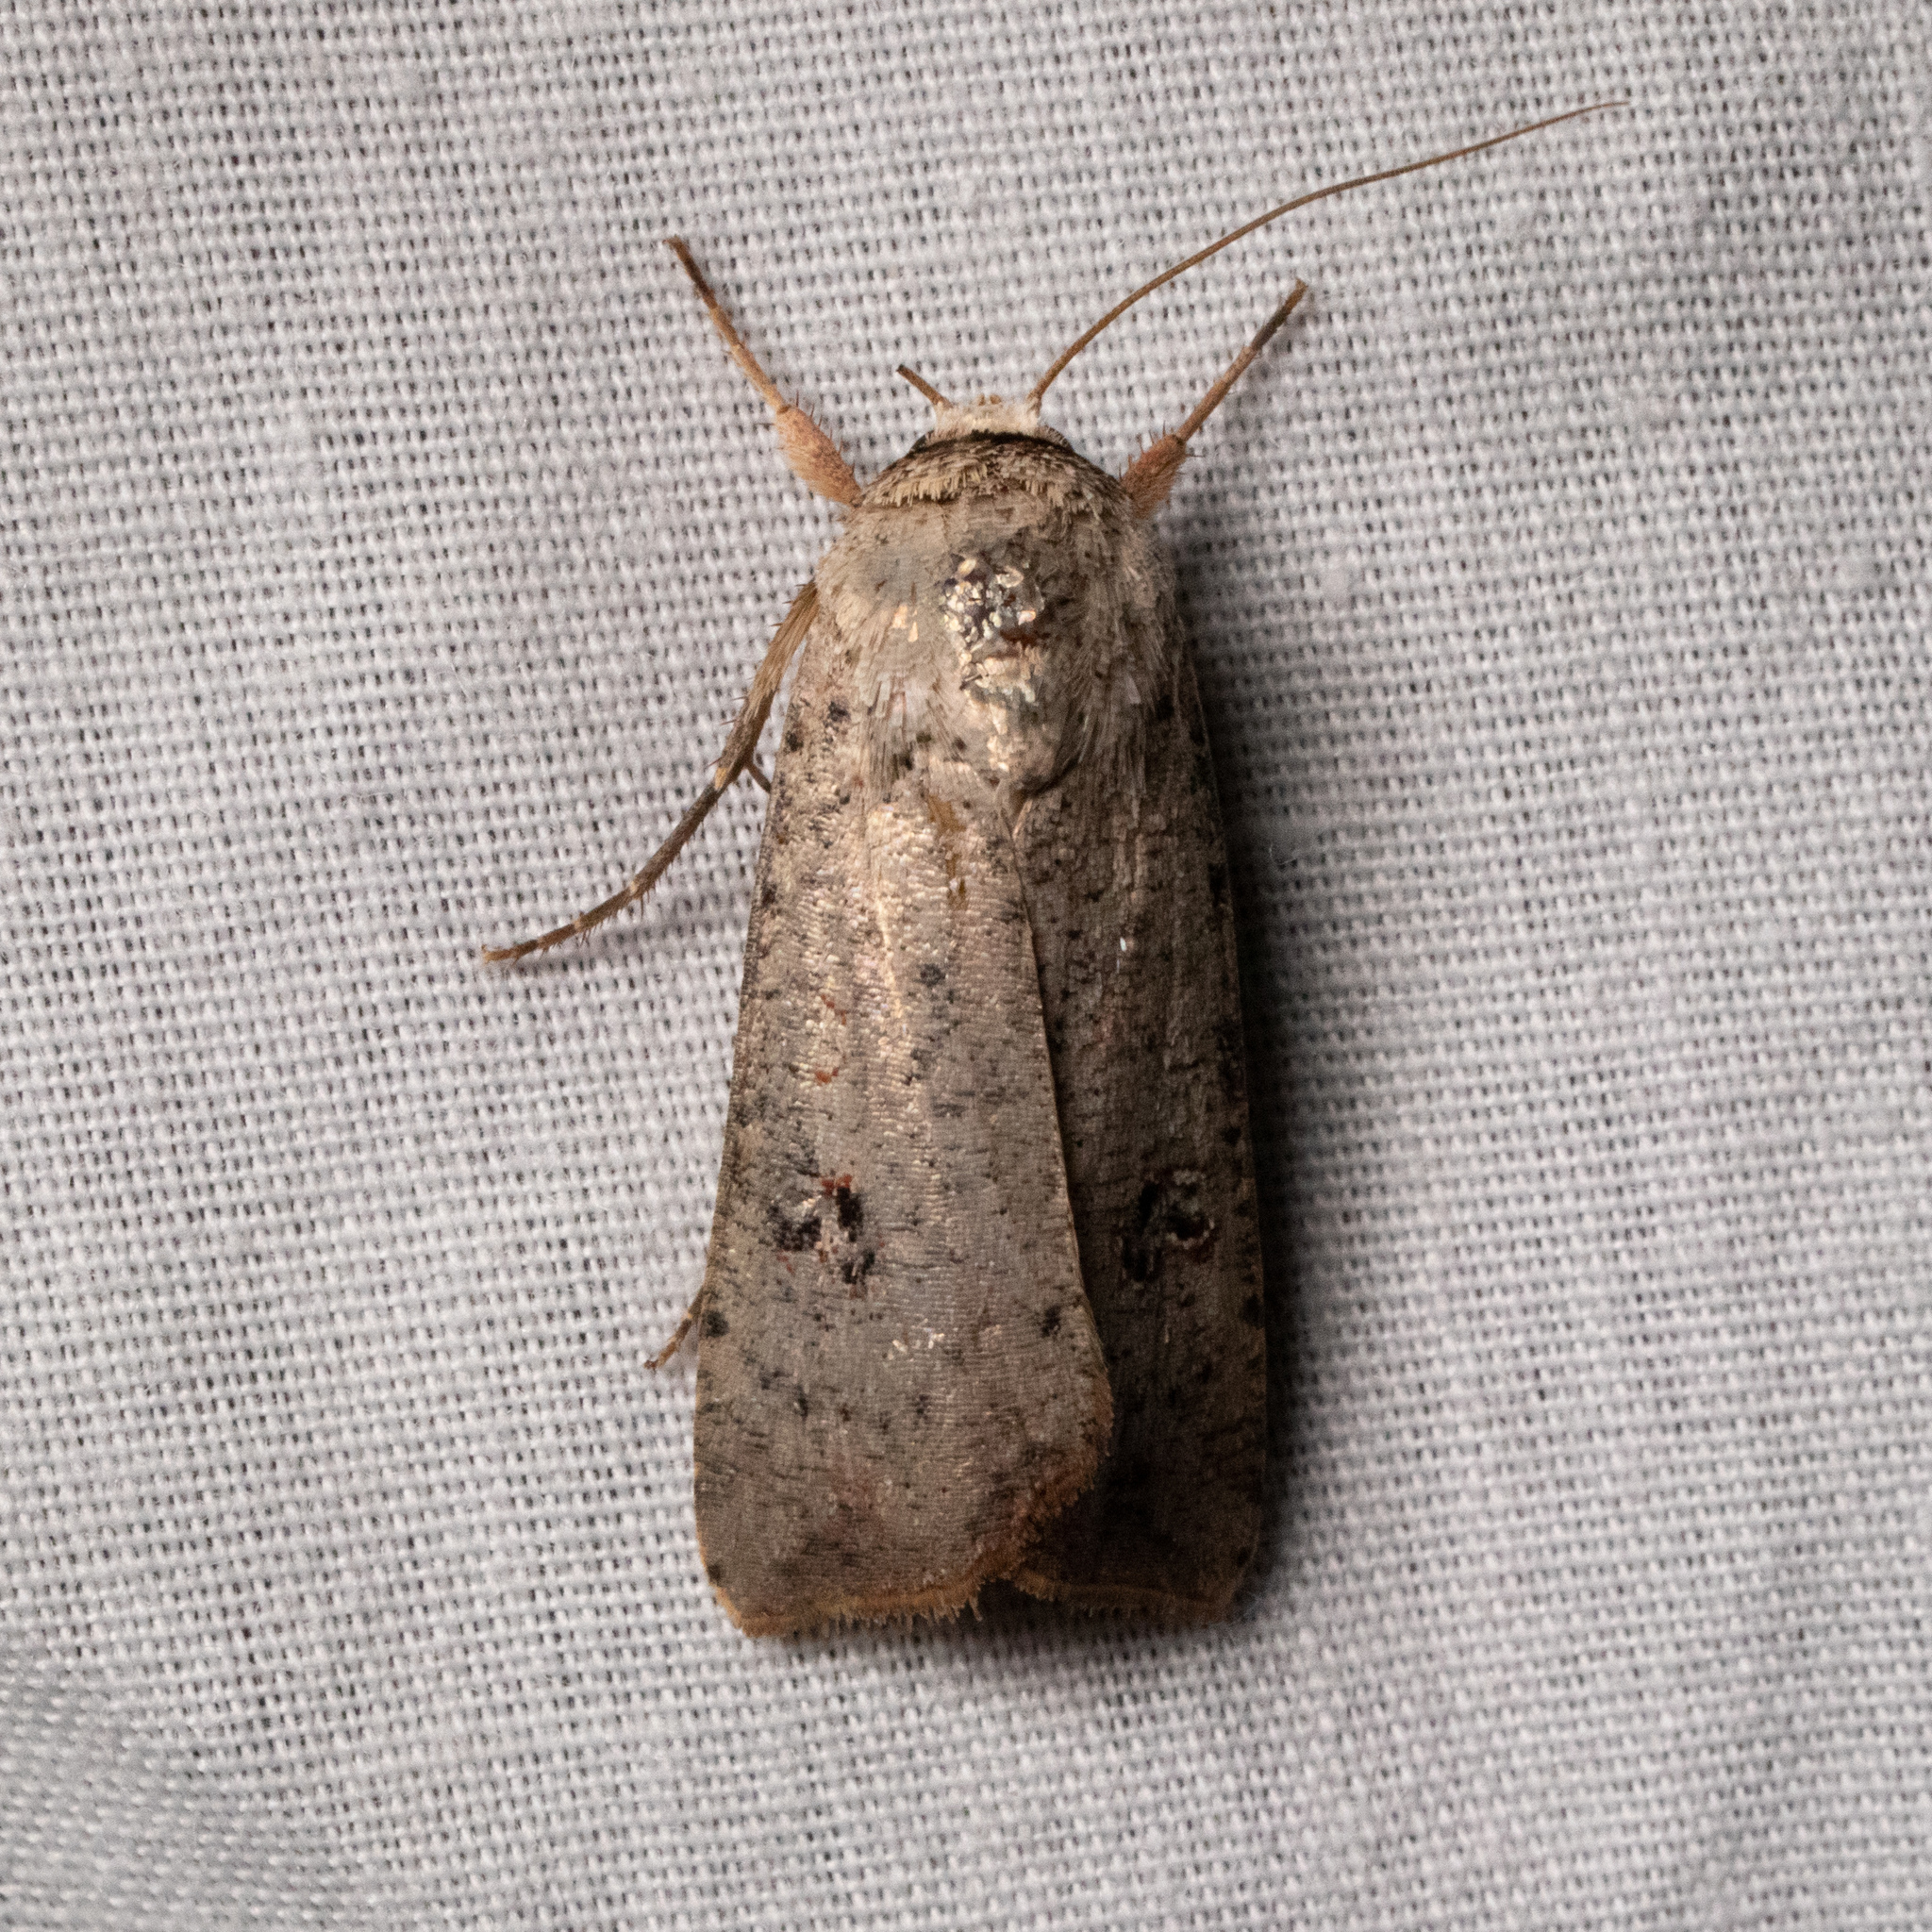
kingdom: Animalia
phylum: Arthropoda
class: Insecta
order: Lepidoptera
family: Noctuidae
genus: Anicla
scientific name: Anicla infecta
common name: Green cutworm
